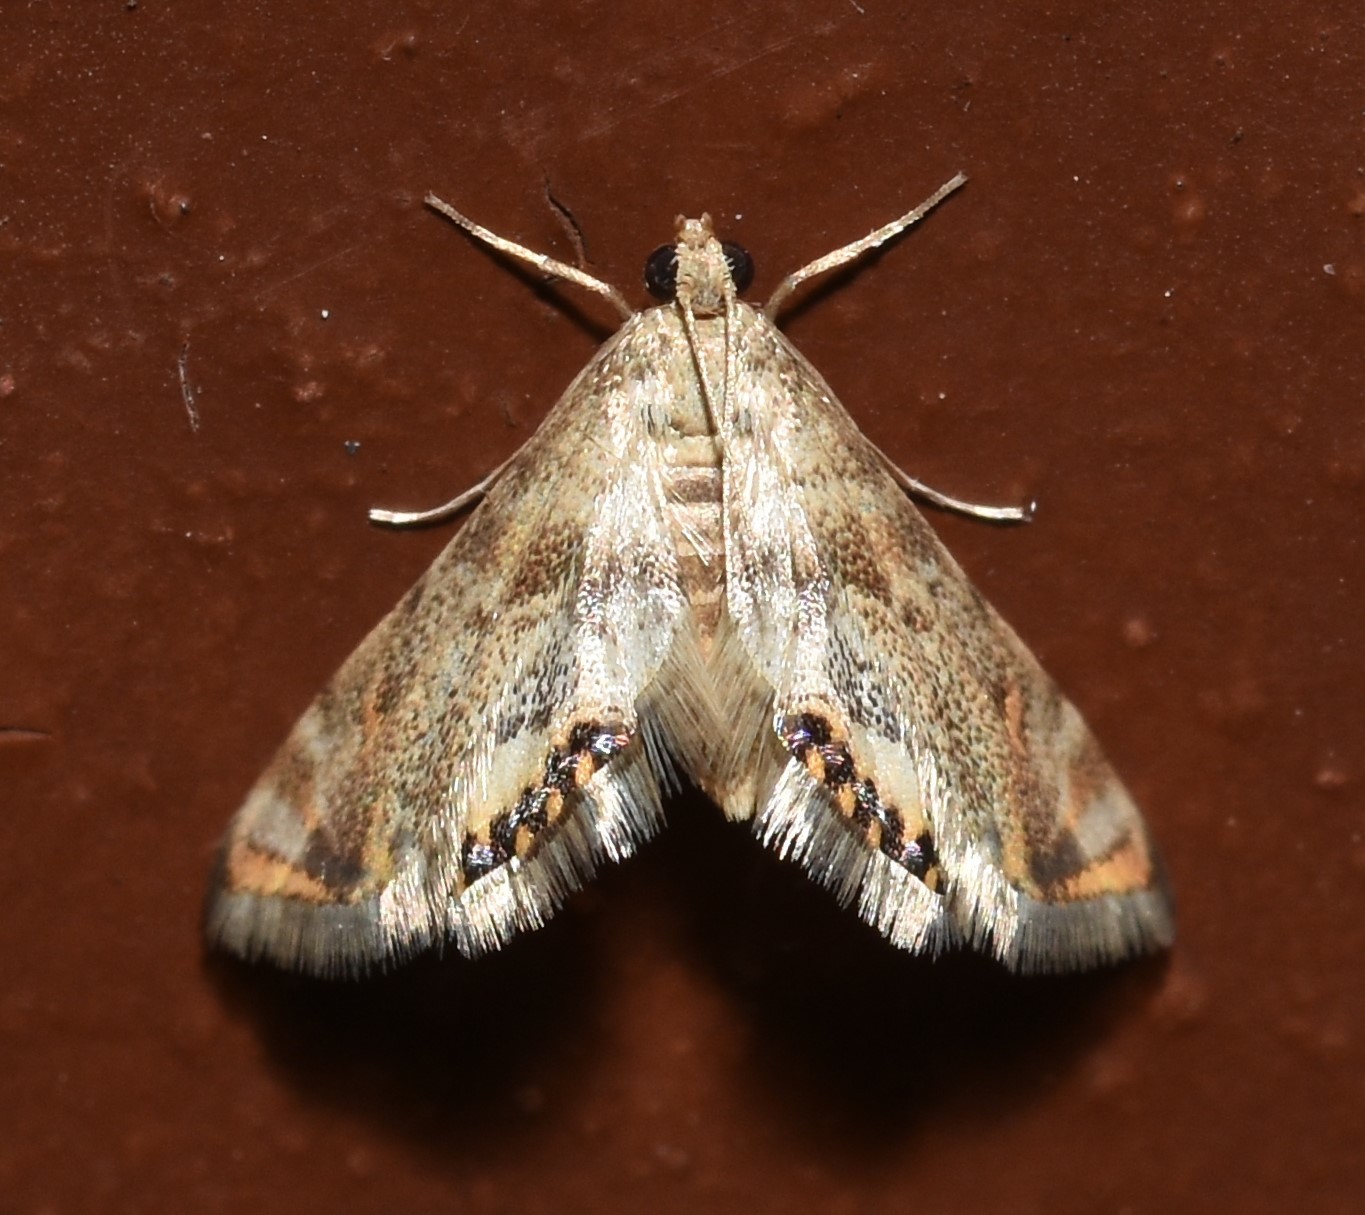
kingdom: Animalia
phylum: Arthropoda
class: Insecta
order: Lepidoptera
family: Crambidae
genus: Petrophila
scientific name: Petrophila fulicalis
